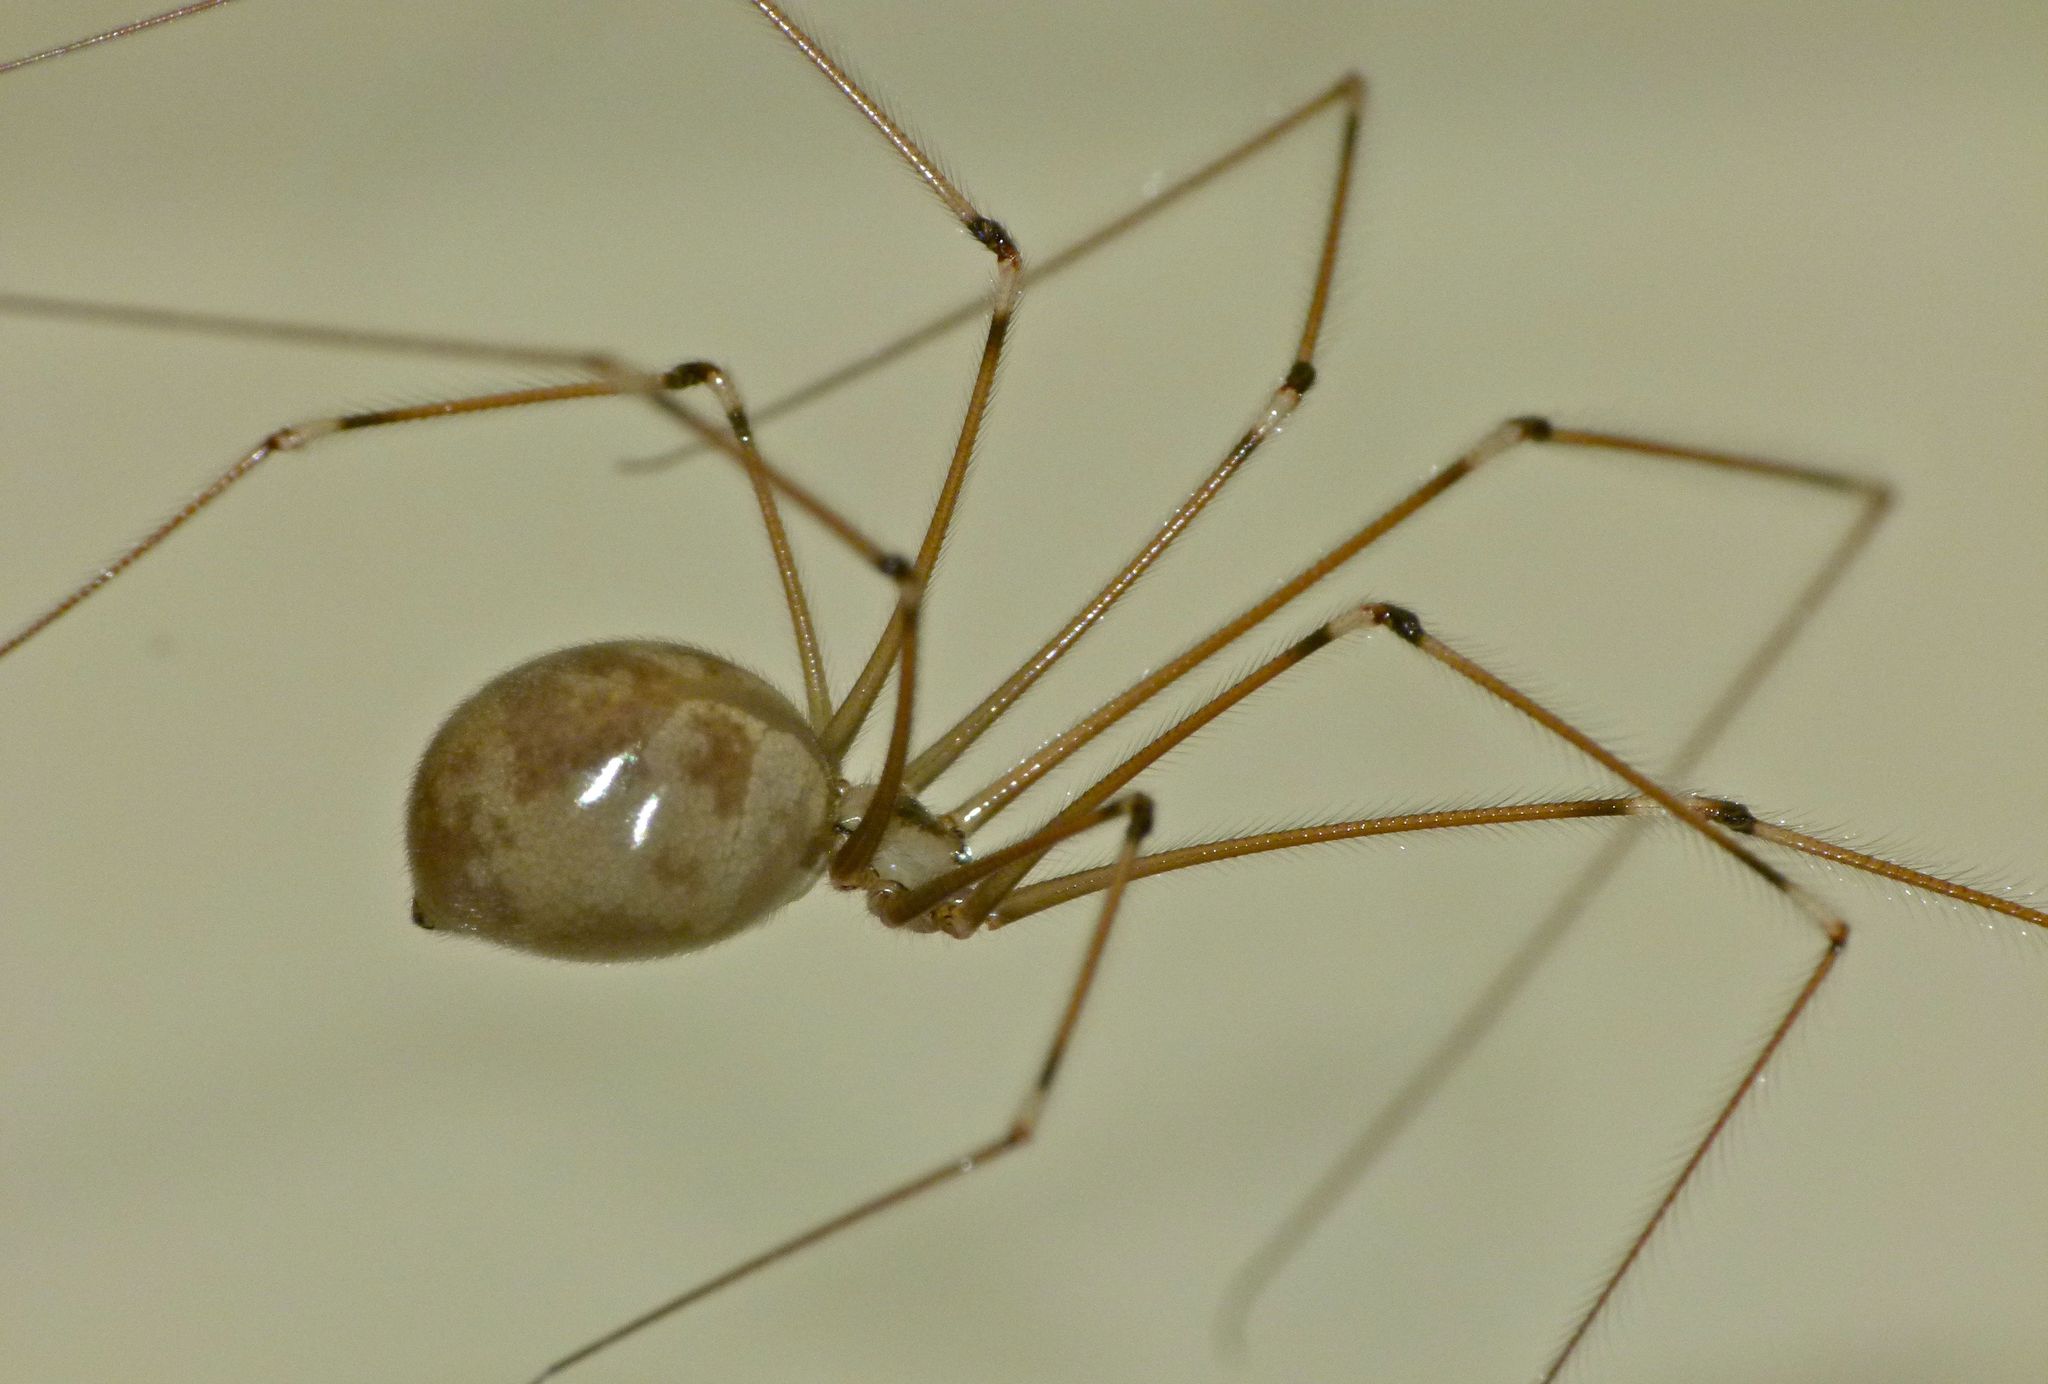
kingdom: Animalia
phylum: Arthropoda
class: Arachnida
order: Araneae
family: Pholcidae
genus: Pholcus
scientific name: Pholcus phalangioides
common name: Longbodied cellar spider
